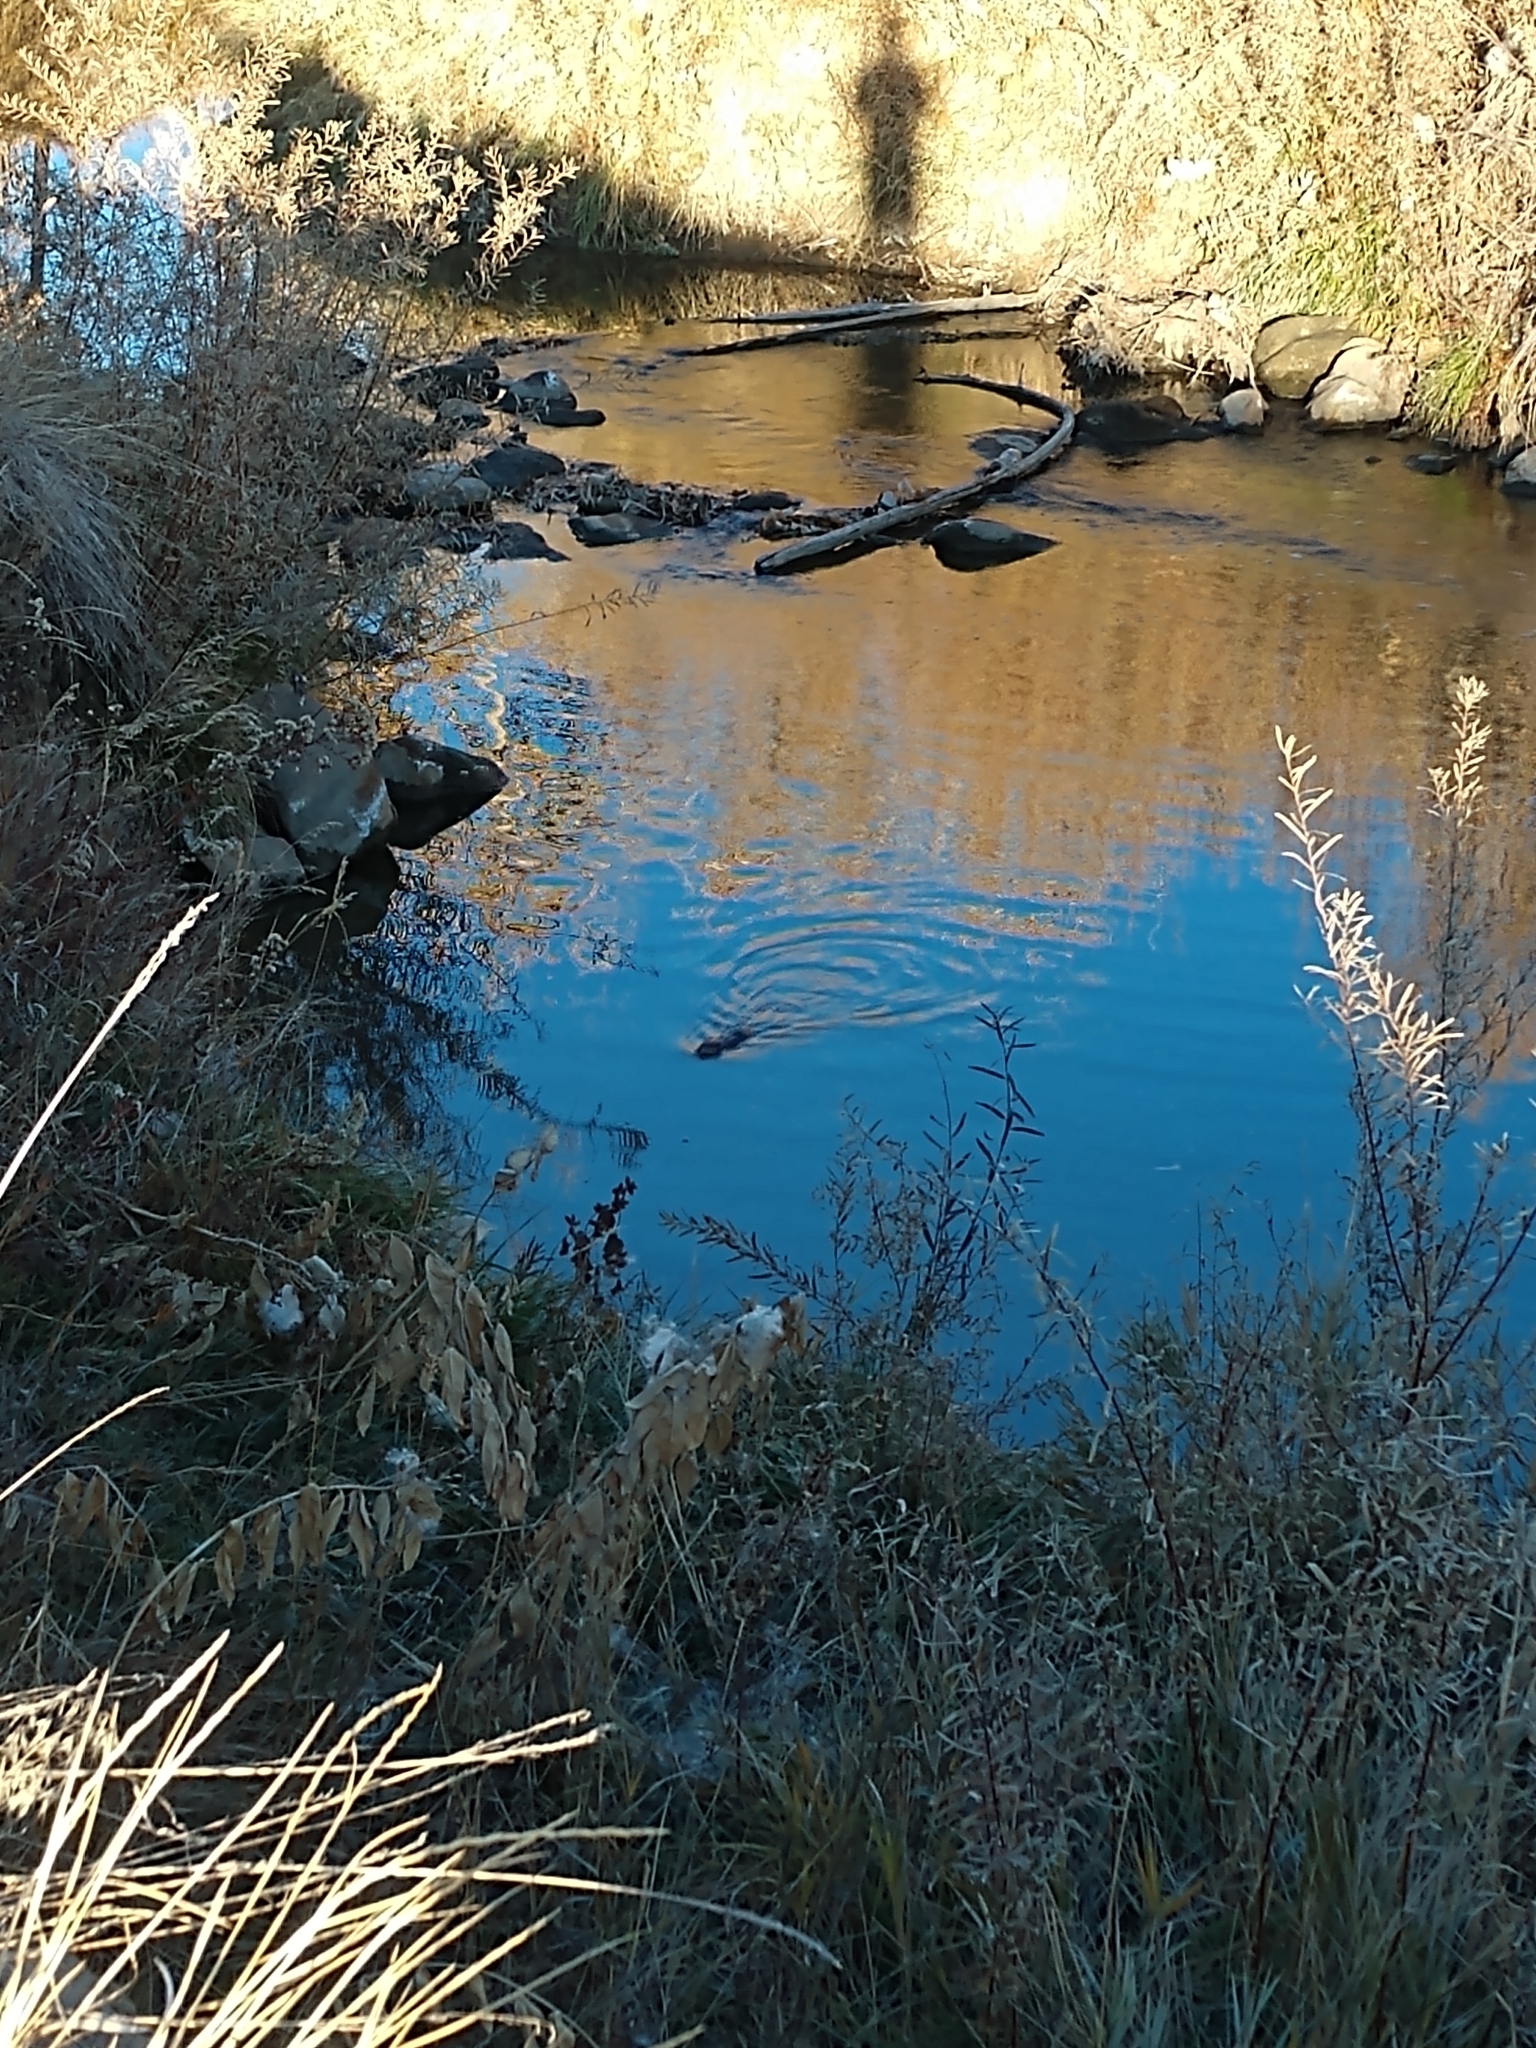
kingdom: Animalia
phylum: Chordata
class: Mammalia
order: Rodentia
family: Cricetidae
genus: Ondatra
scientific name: Ondatra zibethicus
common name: Muskrat
